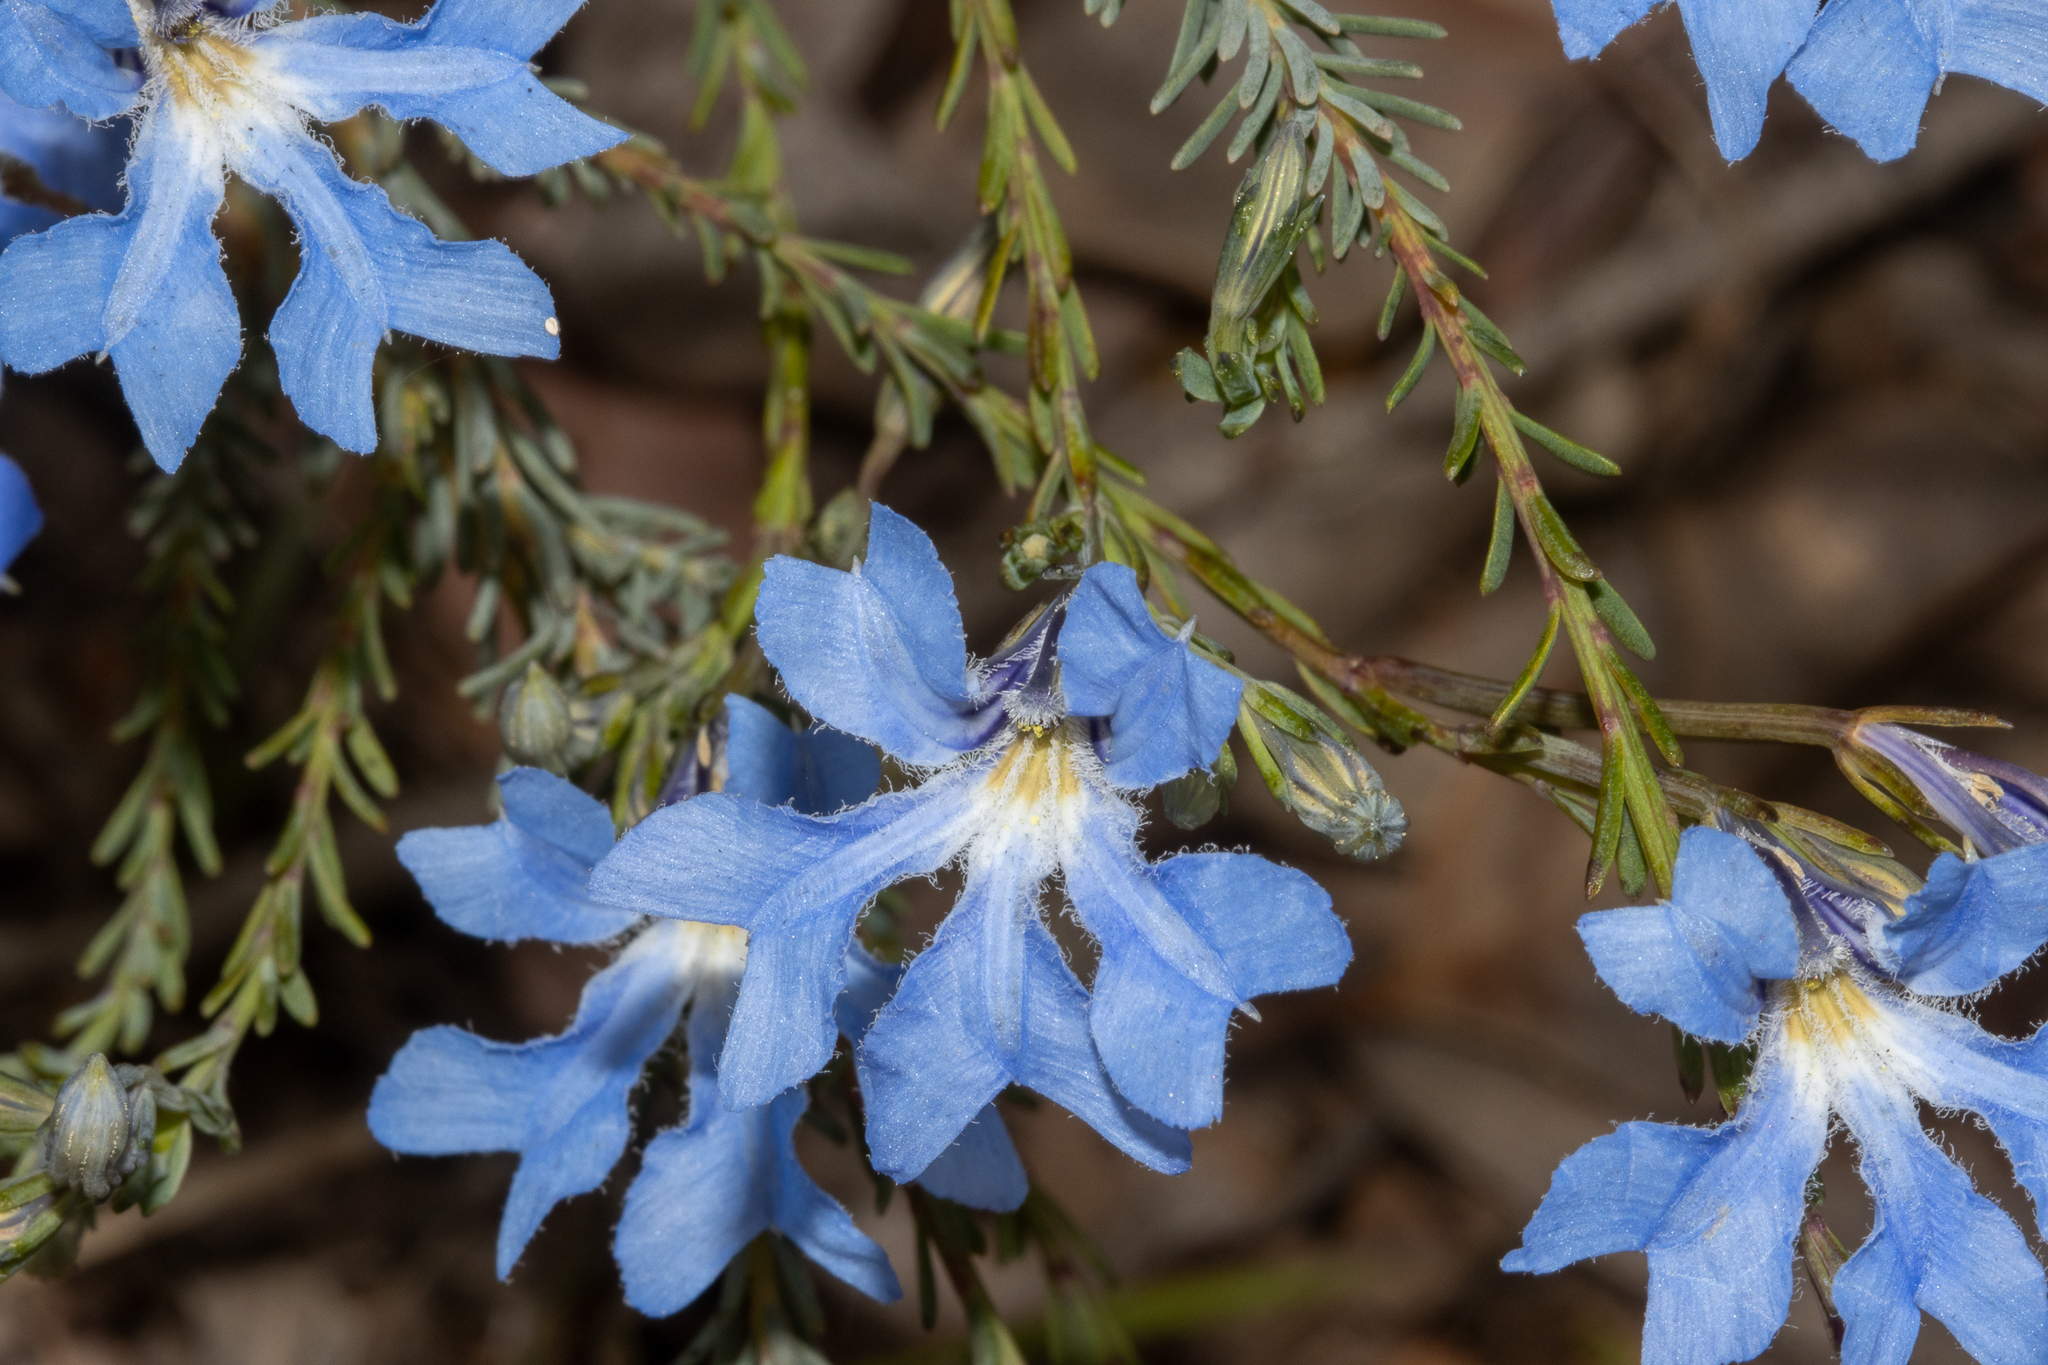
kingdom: Plantae
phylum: Tracheophyta
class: Magnoliopsida
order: Asterales
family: Goodeniaceae
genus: Lechenaultia
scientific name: Lechenaultia biloba
